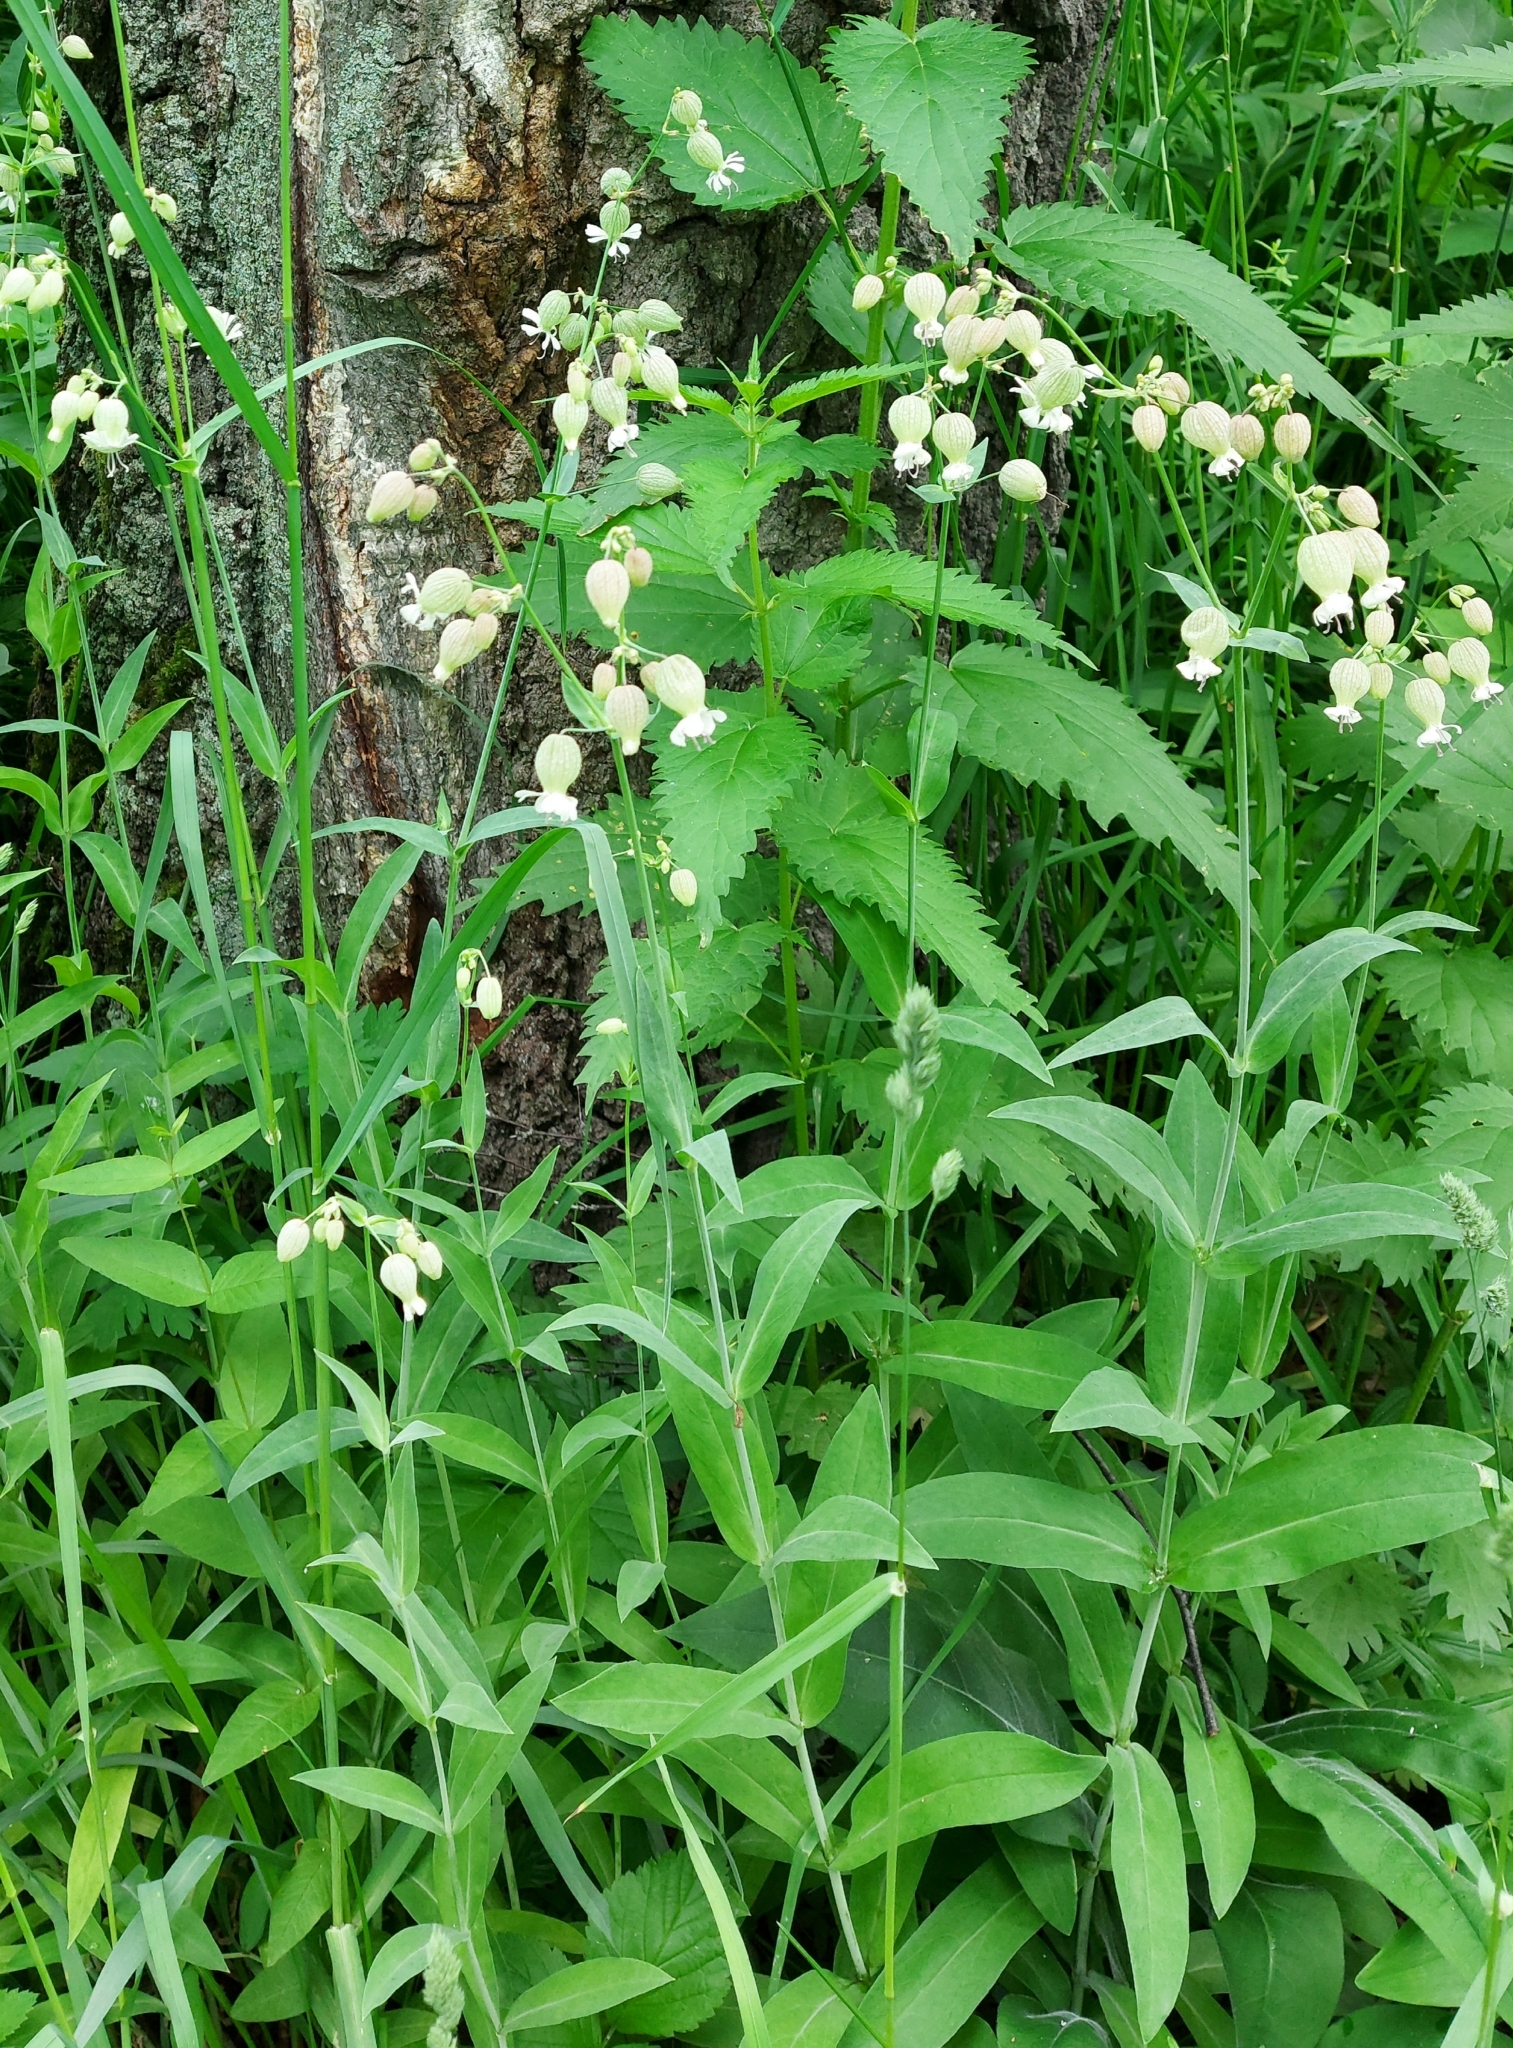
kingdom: Plantae
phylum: Tracheophyta
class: Magnoliopsida
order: Caryophyllales
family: Caryophyllaceae
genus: Silene
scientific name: Silene vulgaris
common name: Bladder campion
